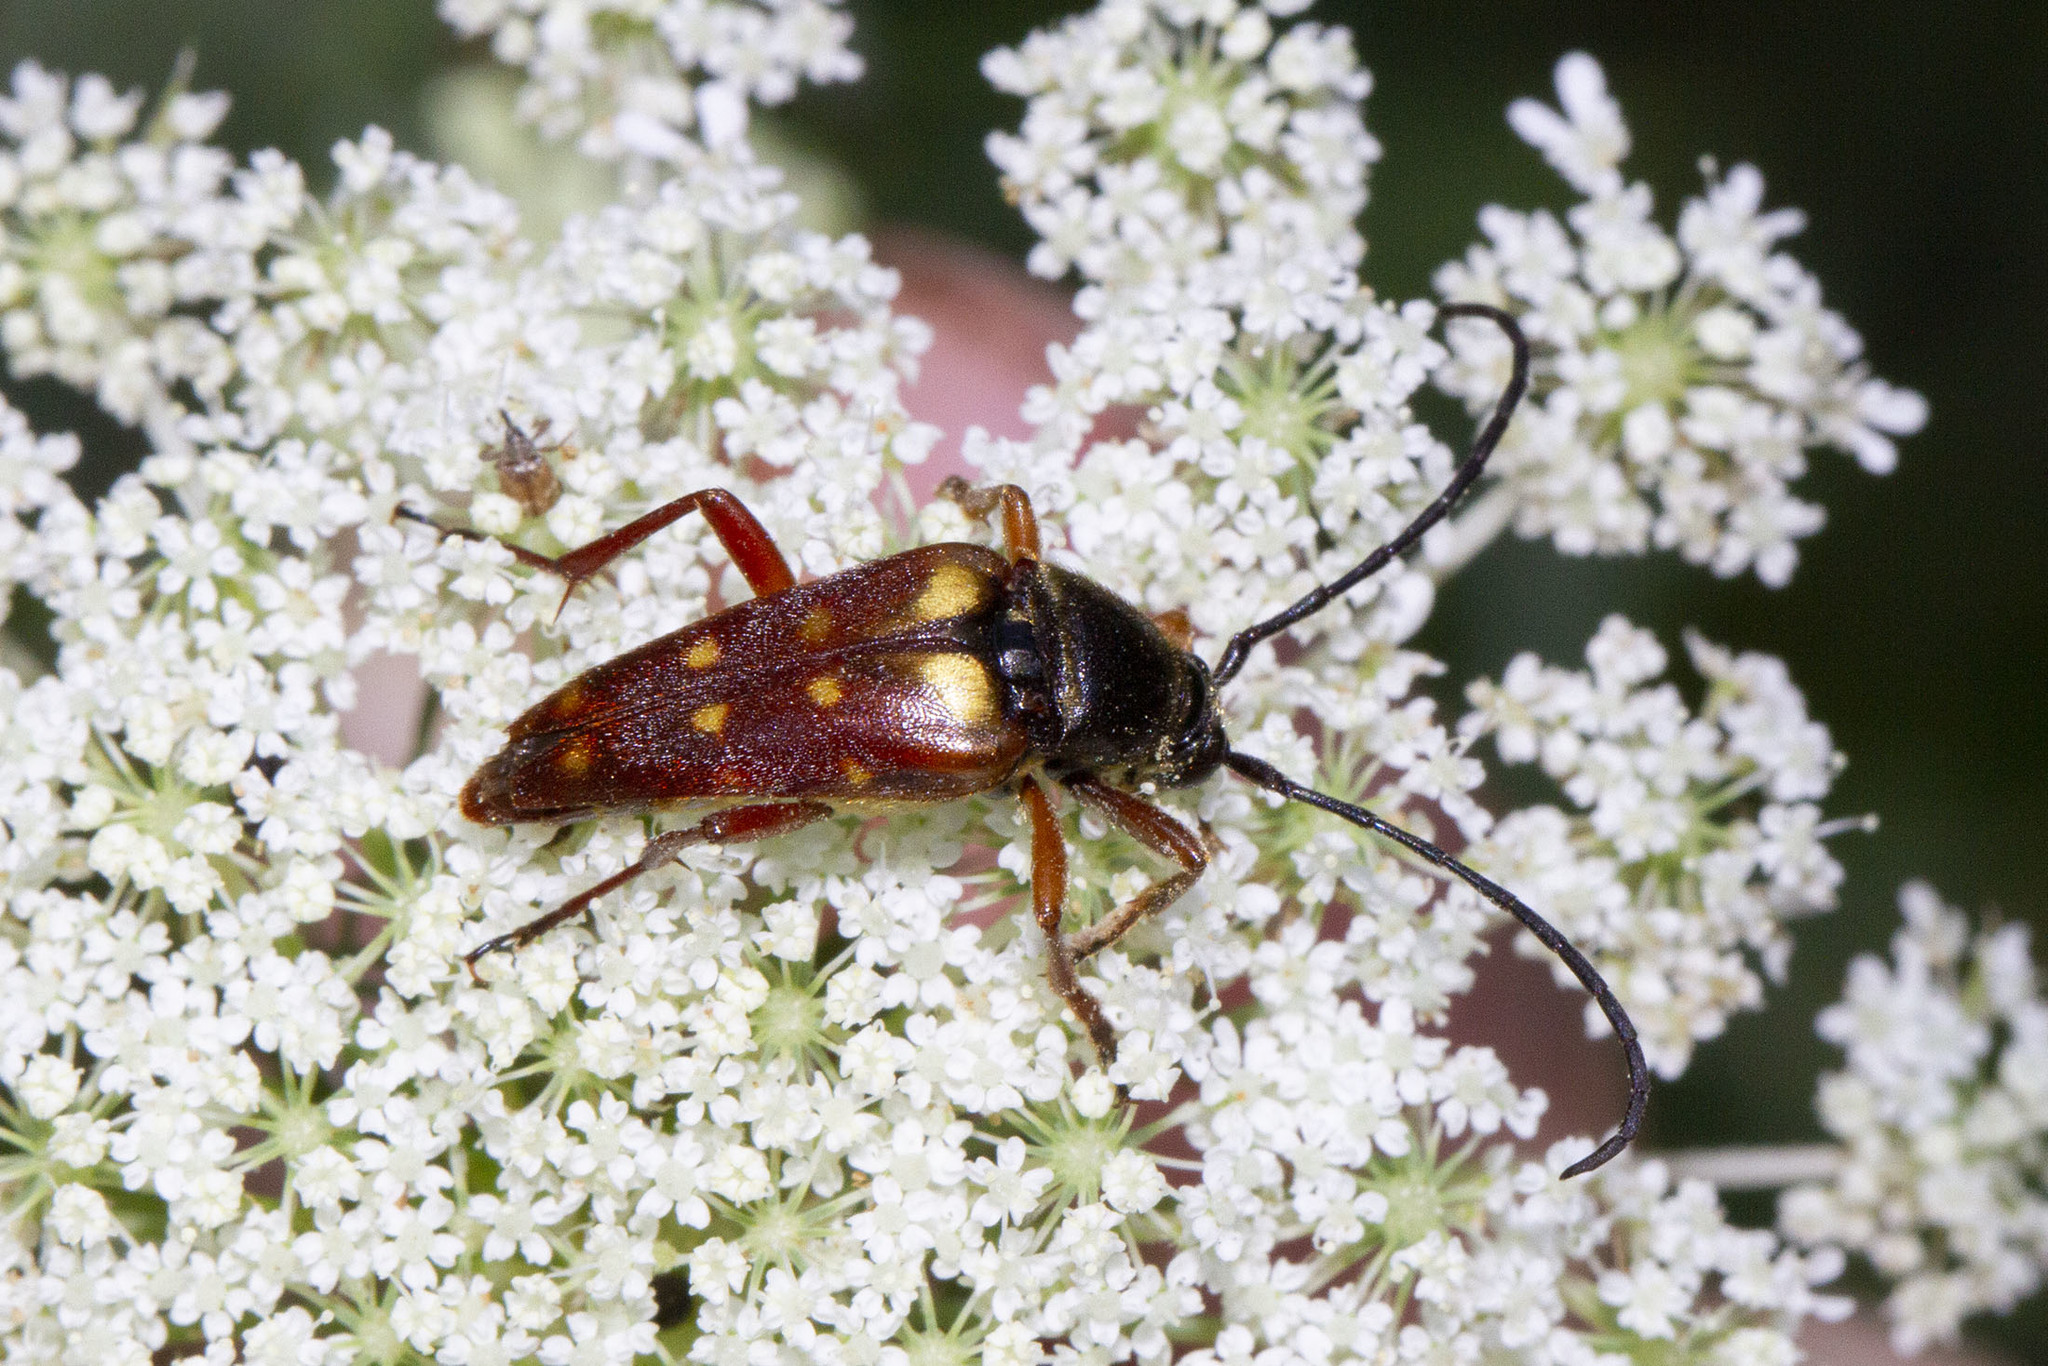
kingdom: Animalia
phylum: Arthropoda
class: Insecta
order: Coleoptera
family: Cerambycidae
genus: Typocerus
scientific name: Typocerus velutinus
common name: Banded longhorn beetle
